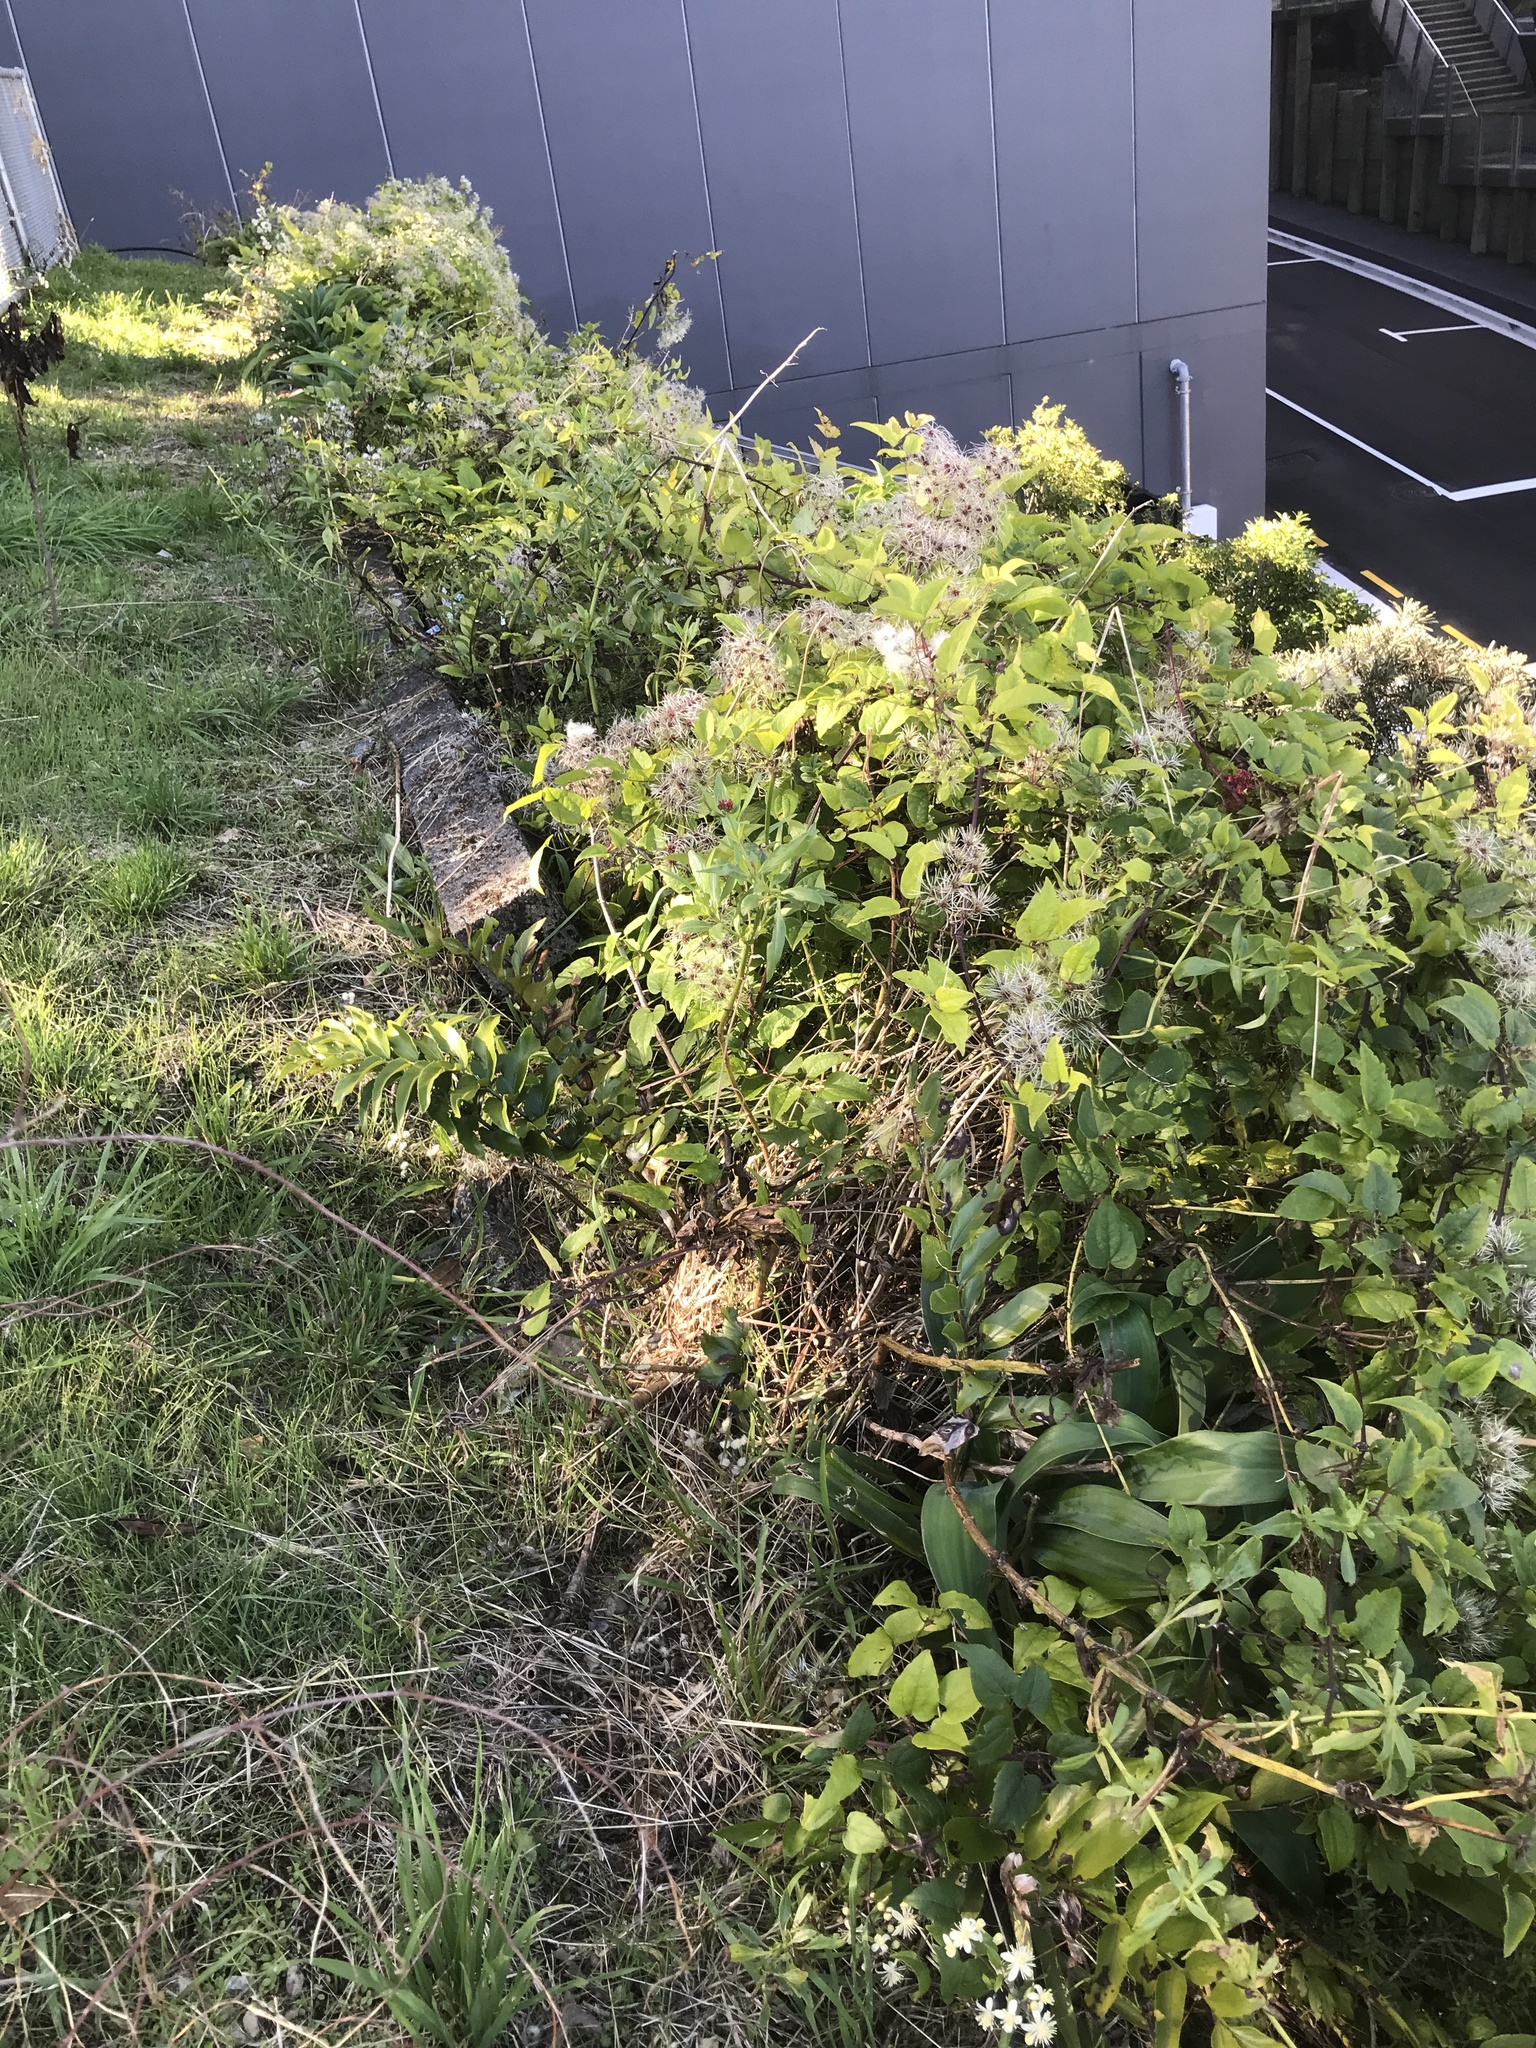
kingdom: Plantae
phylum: Tracheophyta
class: Magnoliopsida
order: Ranunculales
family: Ranunculaceae
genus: Clematis
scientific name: Clematis vitalba
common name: Evergreen clematis
